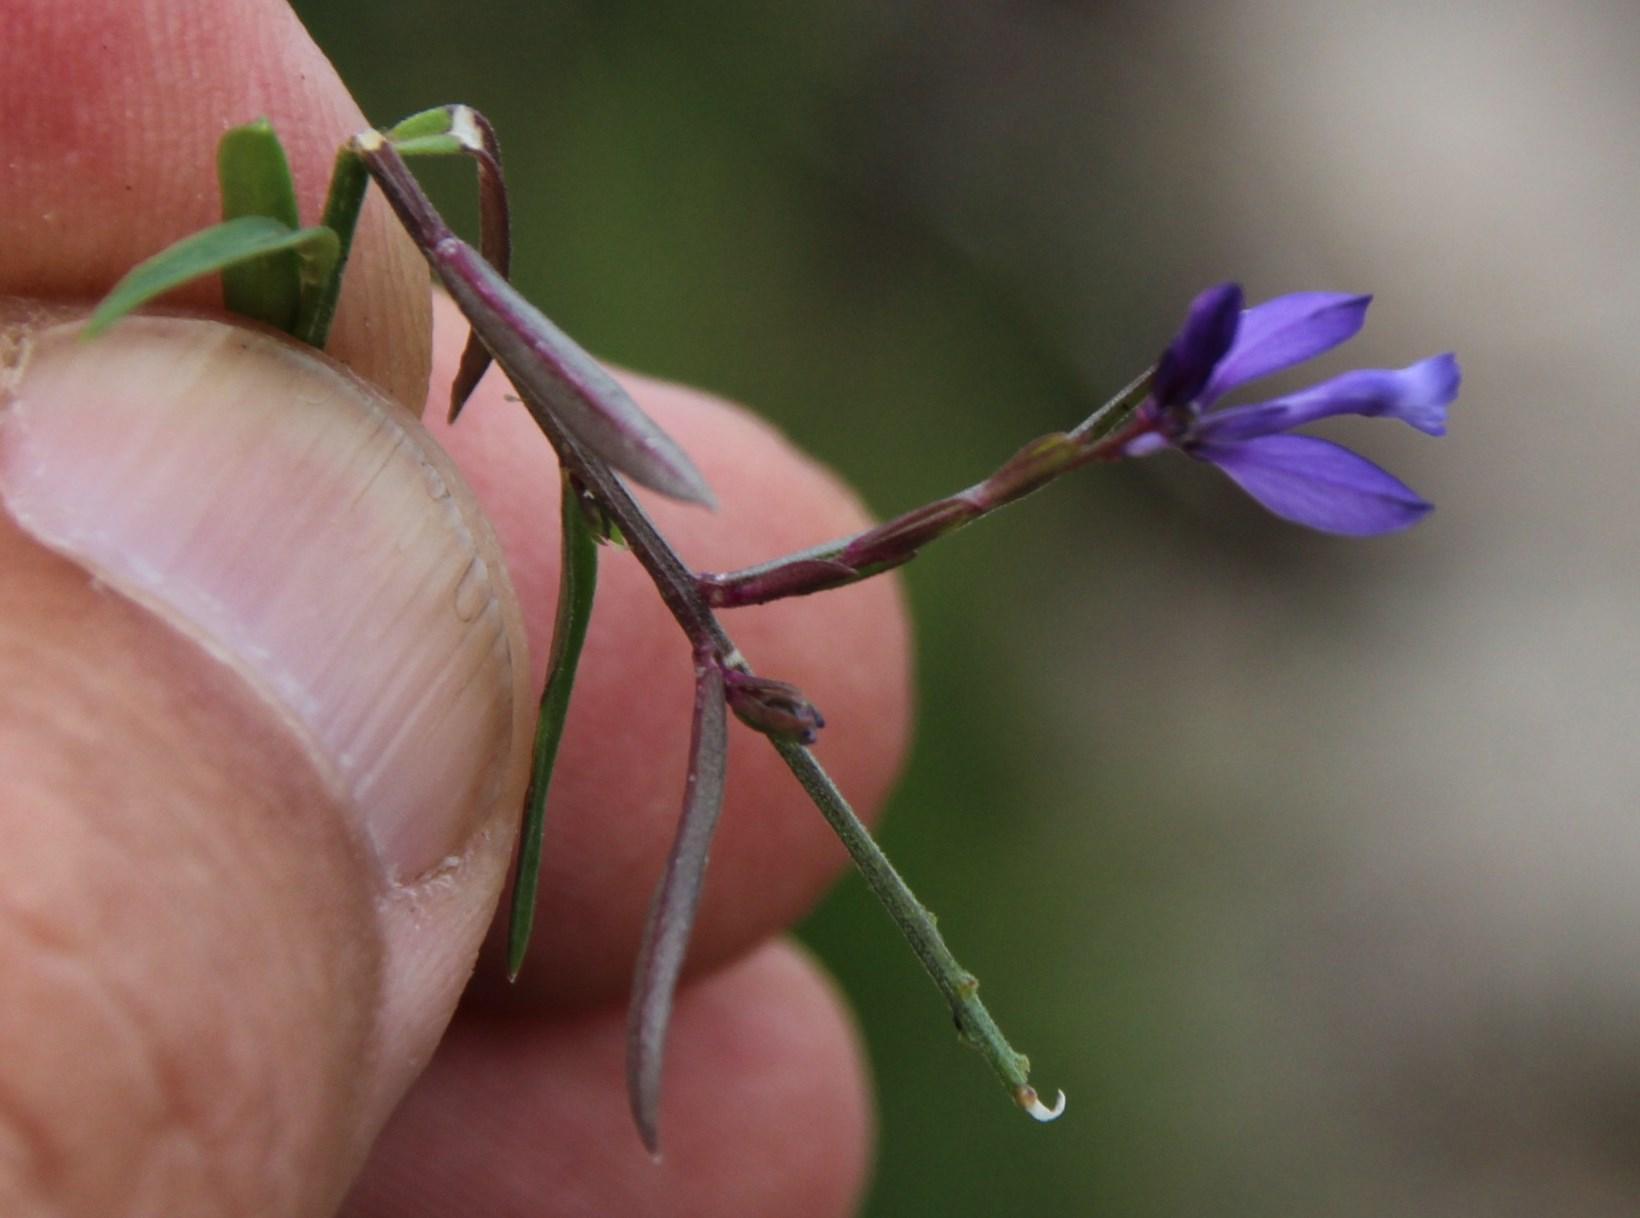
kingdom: Plantae
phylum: Tracheophyta
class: Magnoliopsida
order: Fabales
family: Polygalaceae
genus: Polygala
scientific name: Polygala microphylla
